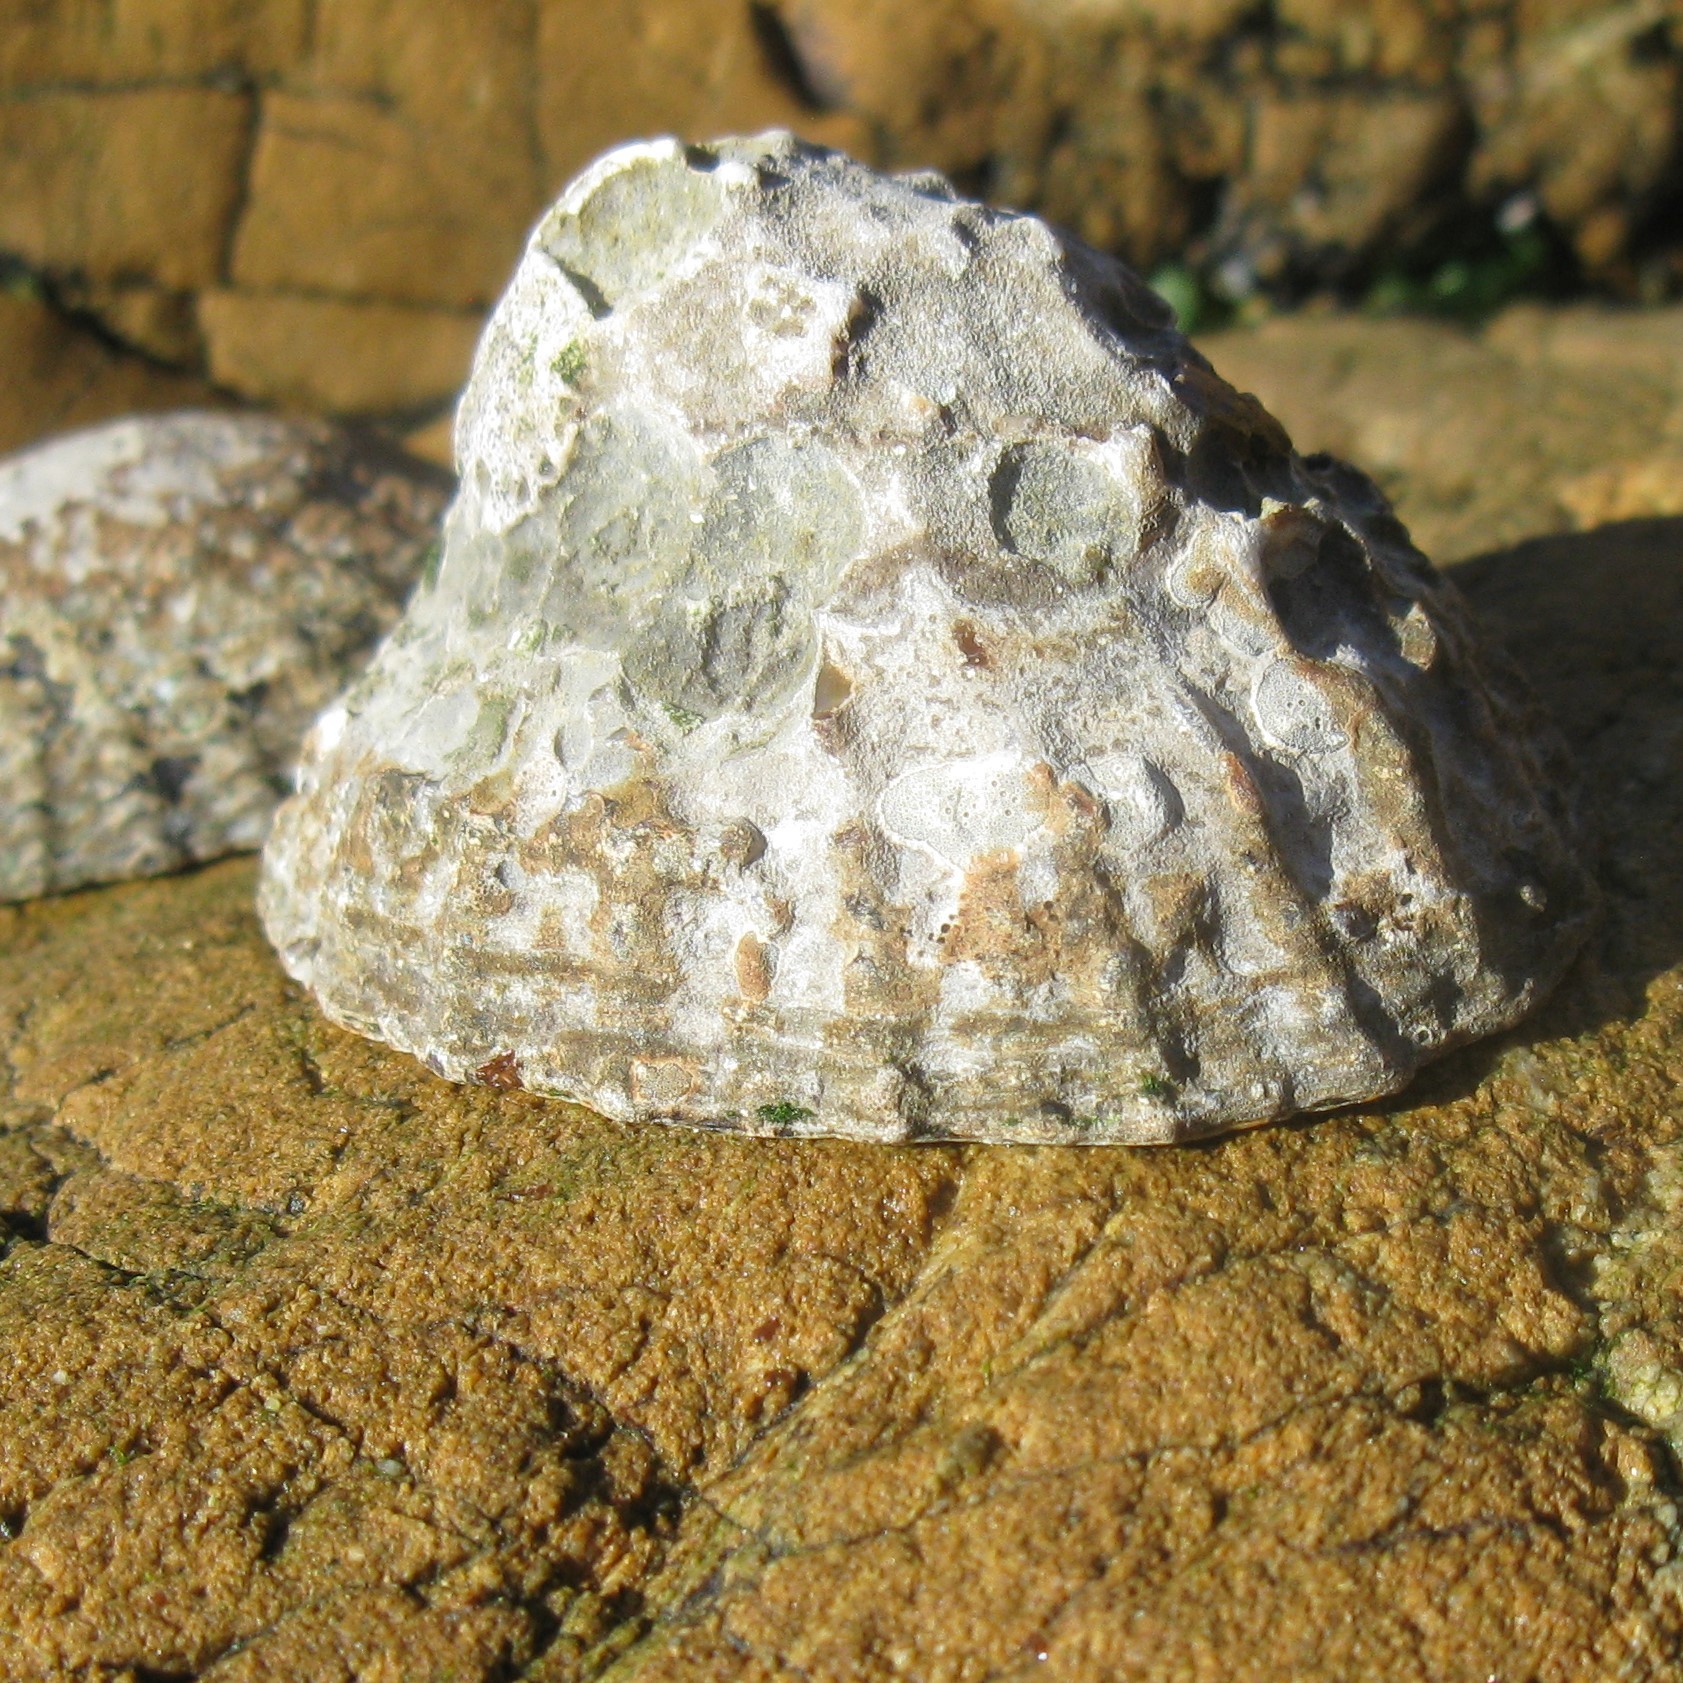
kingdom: Animalia
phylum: Mollusca
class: Gastropoda
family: Nacellidae
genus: Cellana
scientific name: Cellana denticulata
